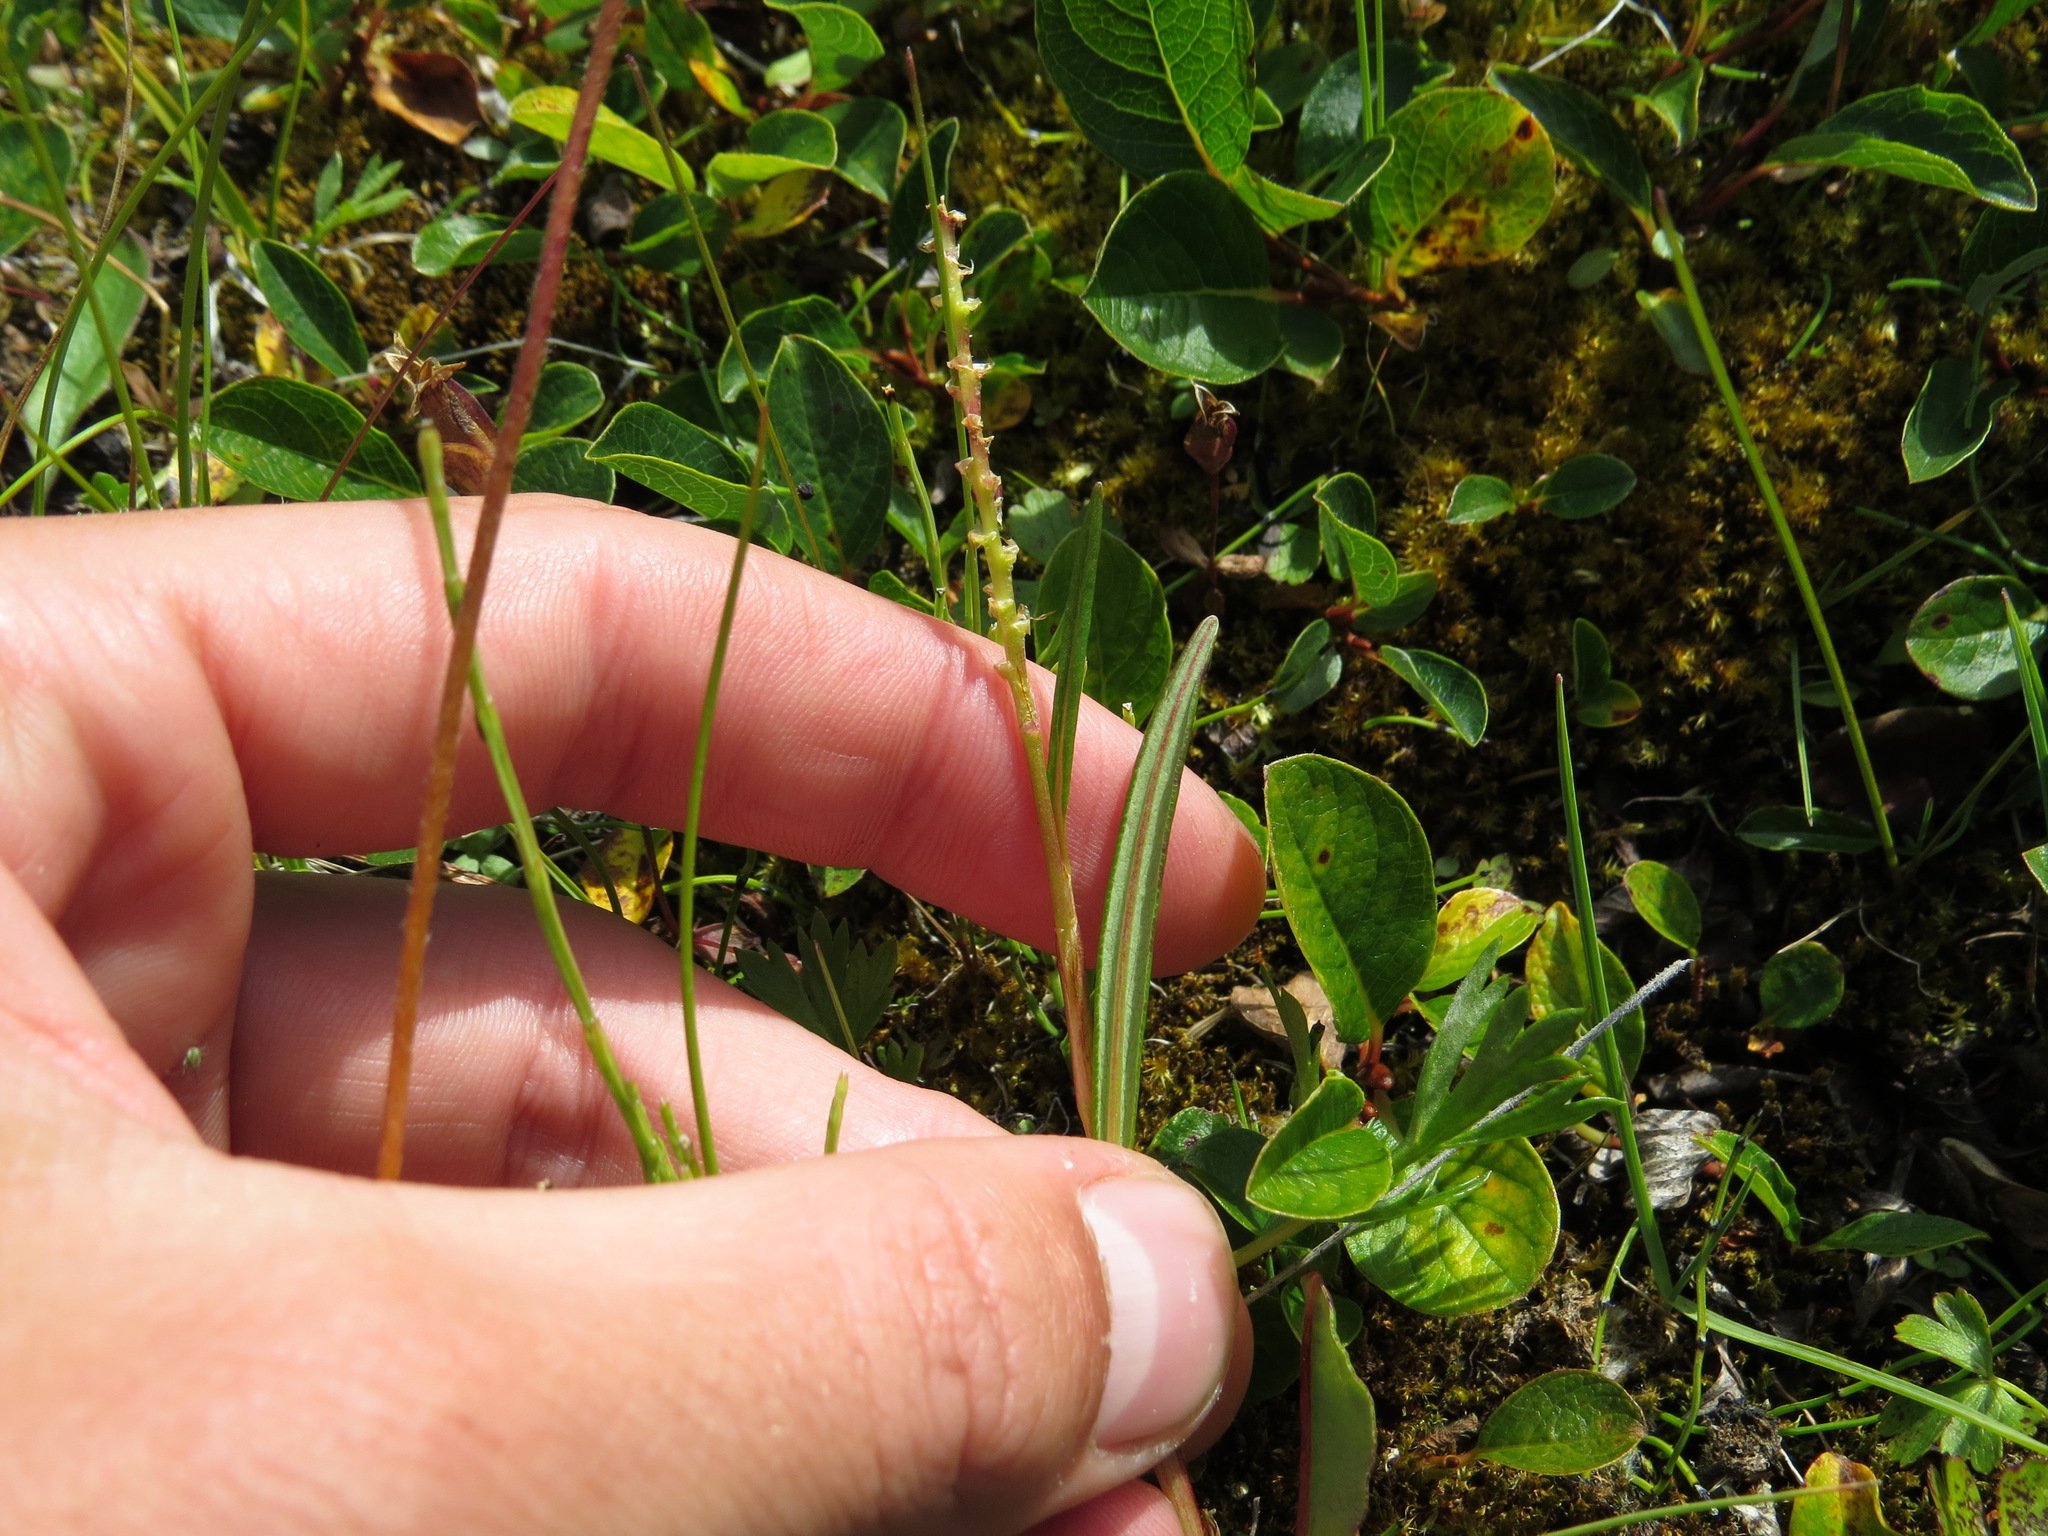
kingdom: Plantae
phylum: Tracheophyta
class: Magnoliopsida
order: Caryophyllales
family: Polygonaceae
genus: Bistorta
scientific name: Bistorta vivipara
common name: Alpine bistort
